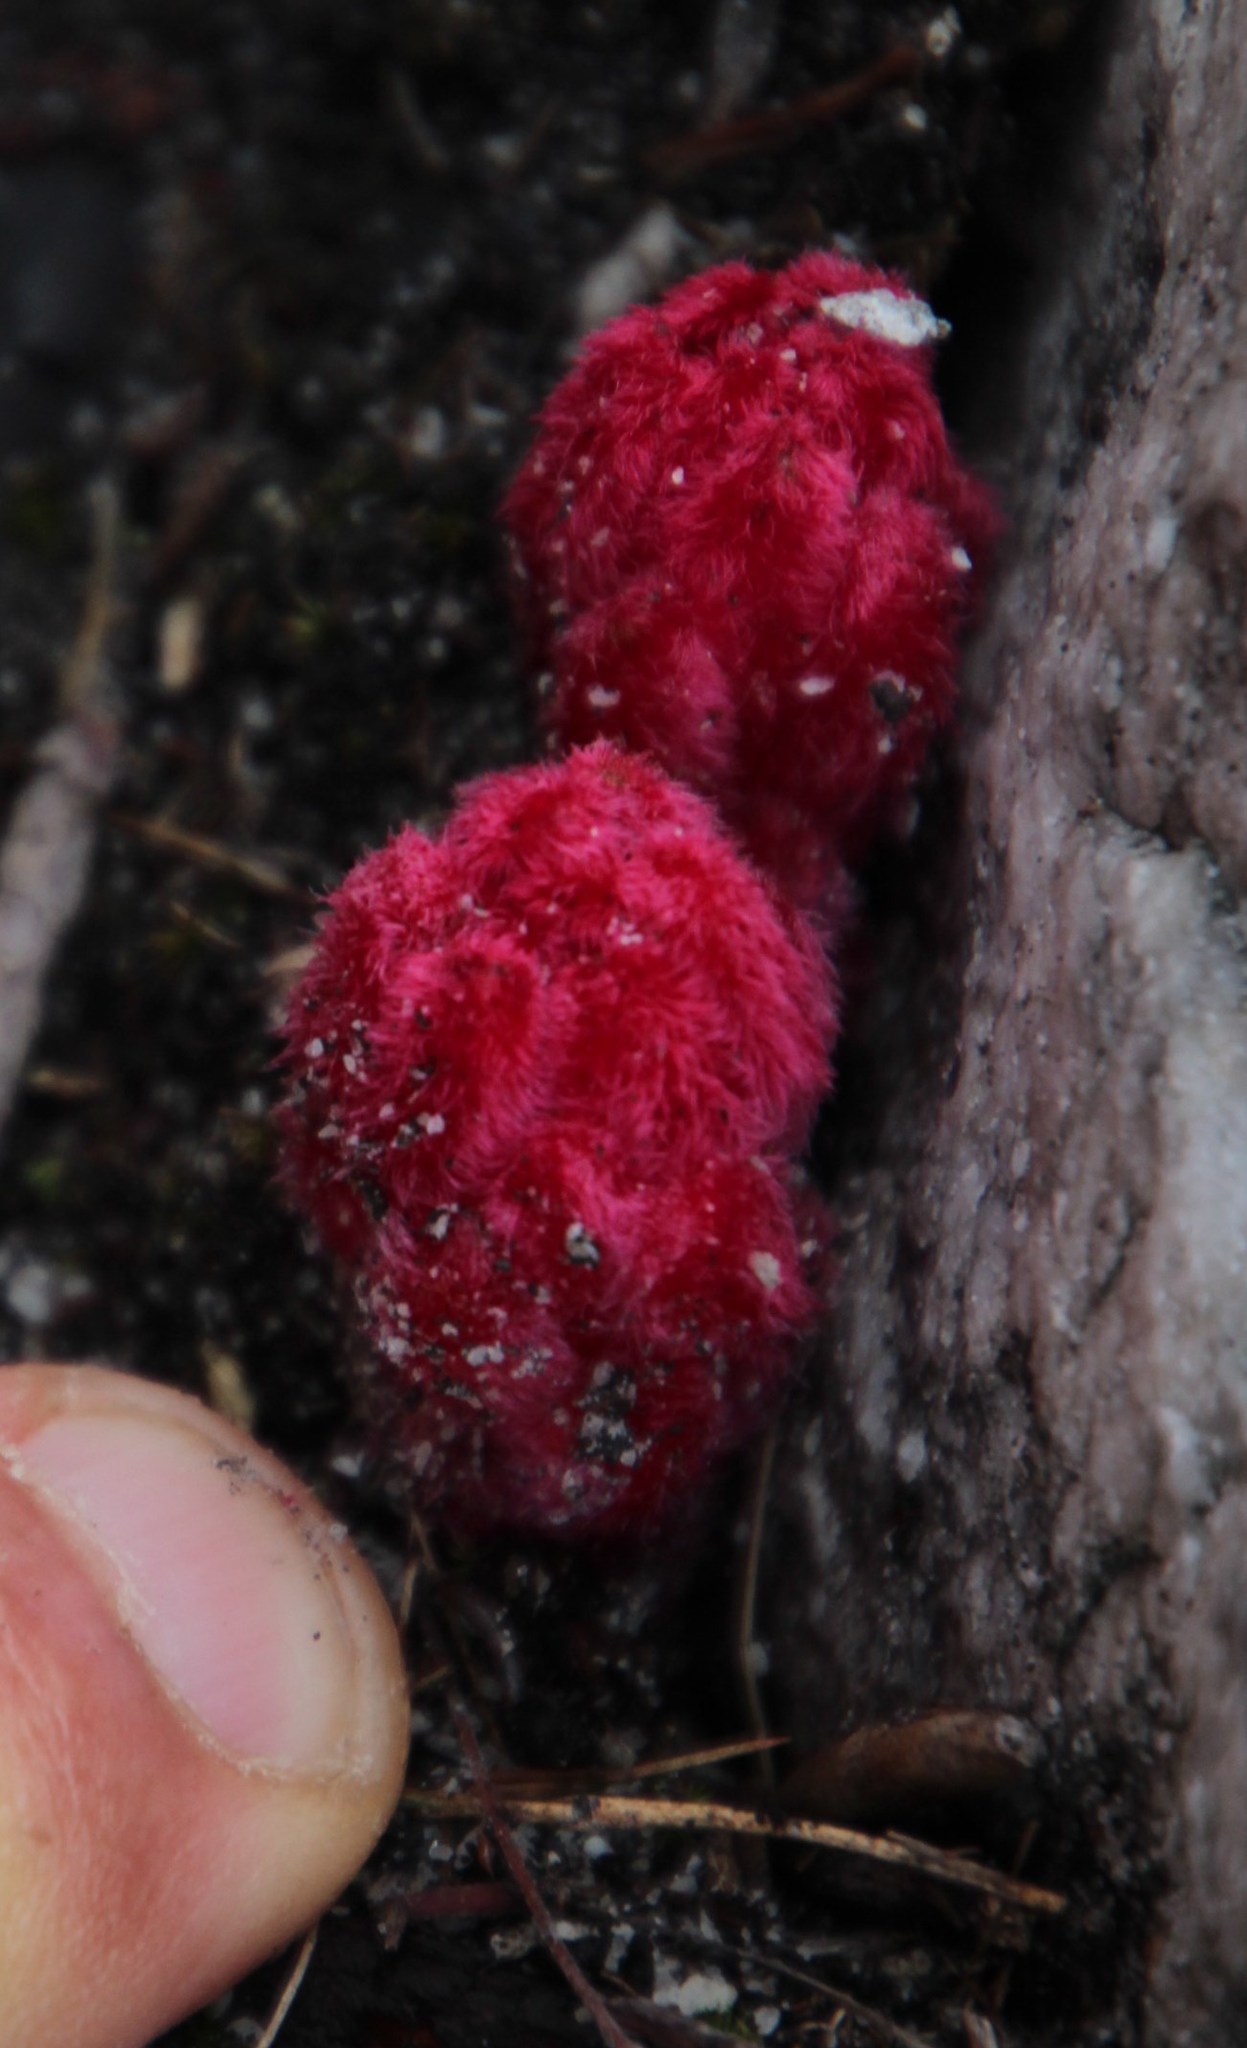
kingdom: Plantae
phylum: Tracheophyta
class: Magnoliopsida
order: Lamiales
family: Orobanchaceae
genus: Hyobanche
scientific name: Hyobanche sanguinea
